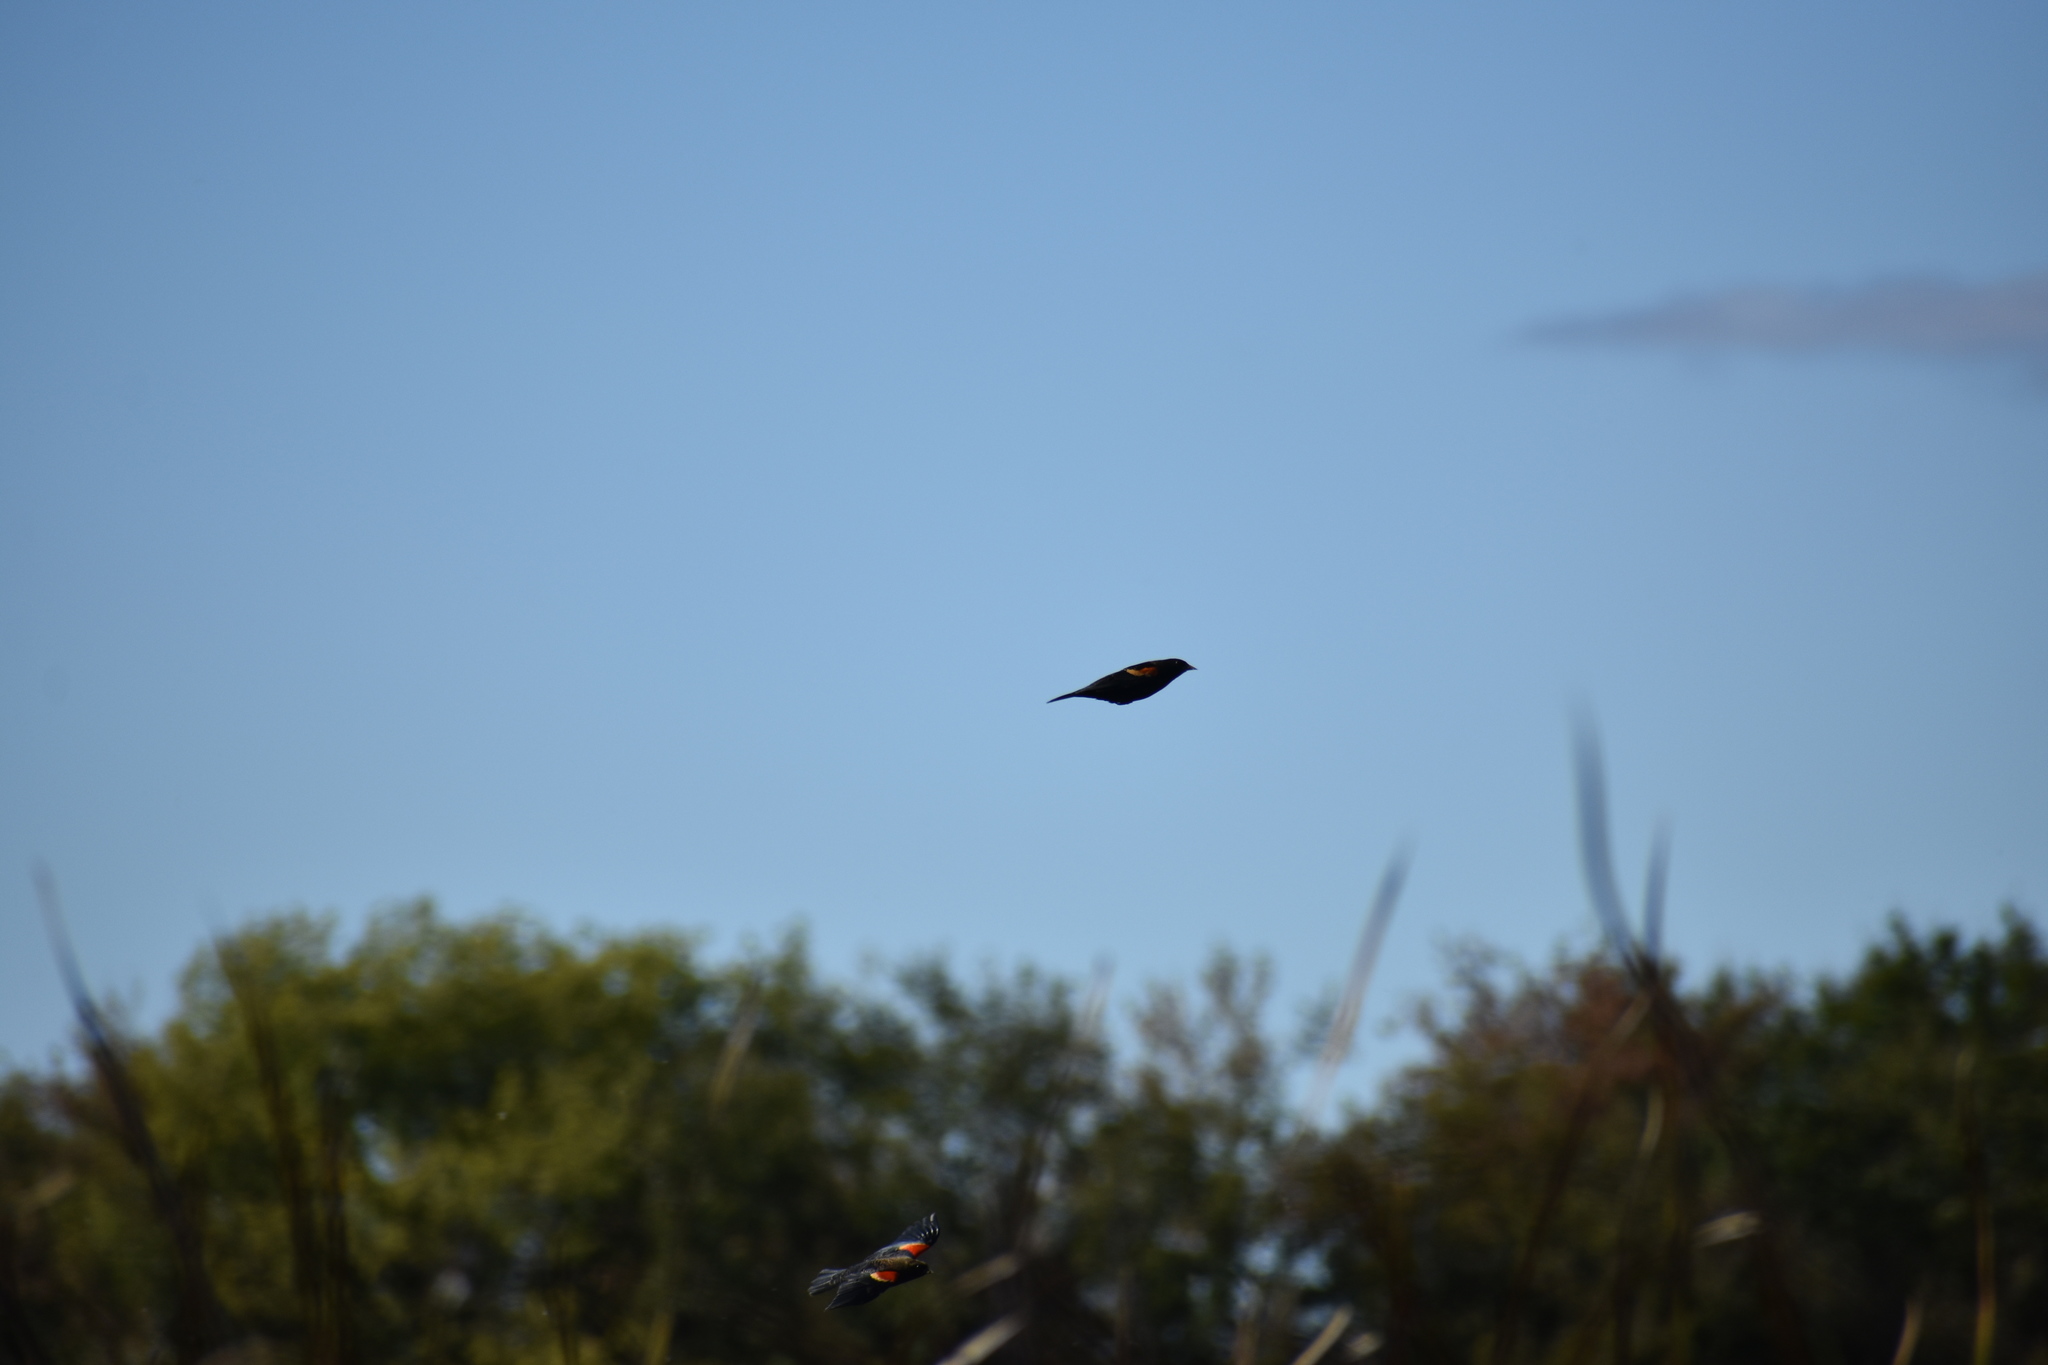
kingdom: Animalia
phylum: Chordata
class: Aves
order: Passeriformes
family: Icteridae
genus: Agelaius
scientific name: Agelaius phoeniceus
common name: Red-winged blackbird
